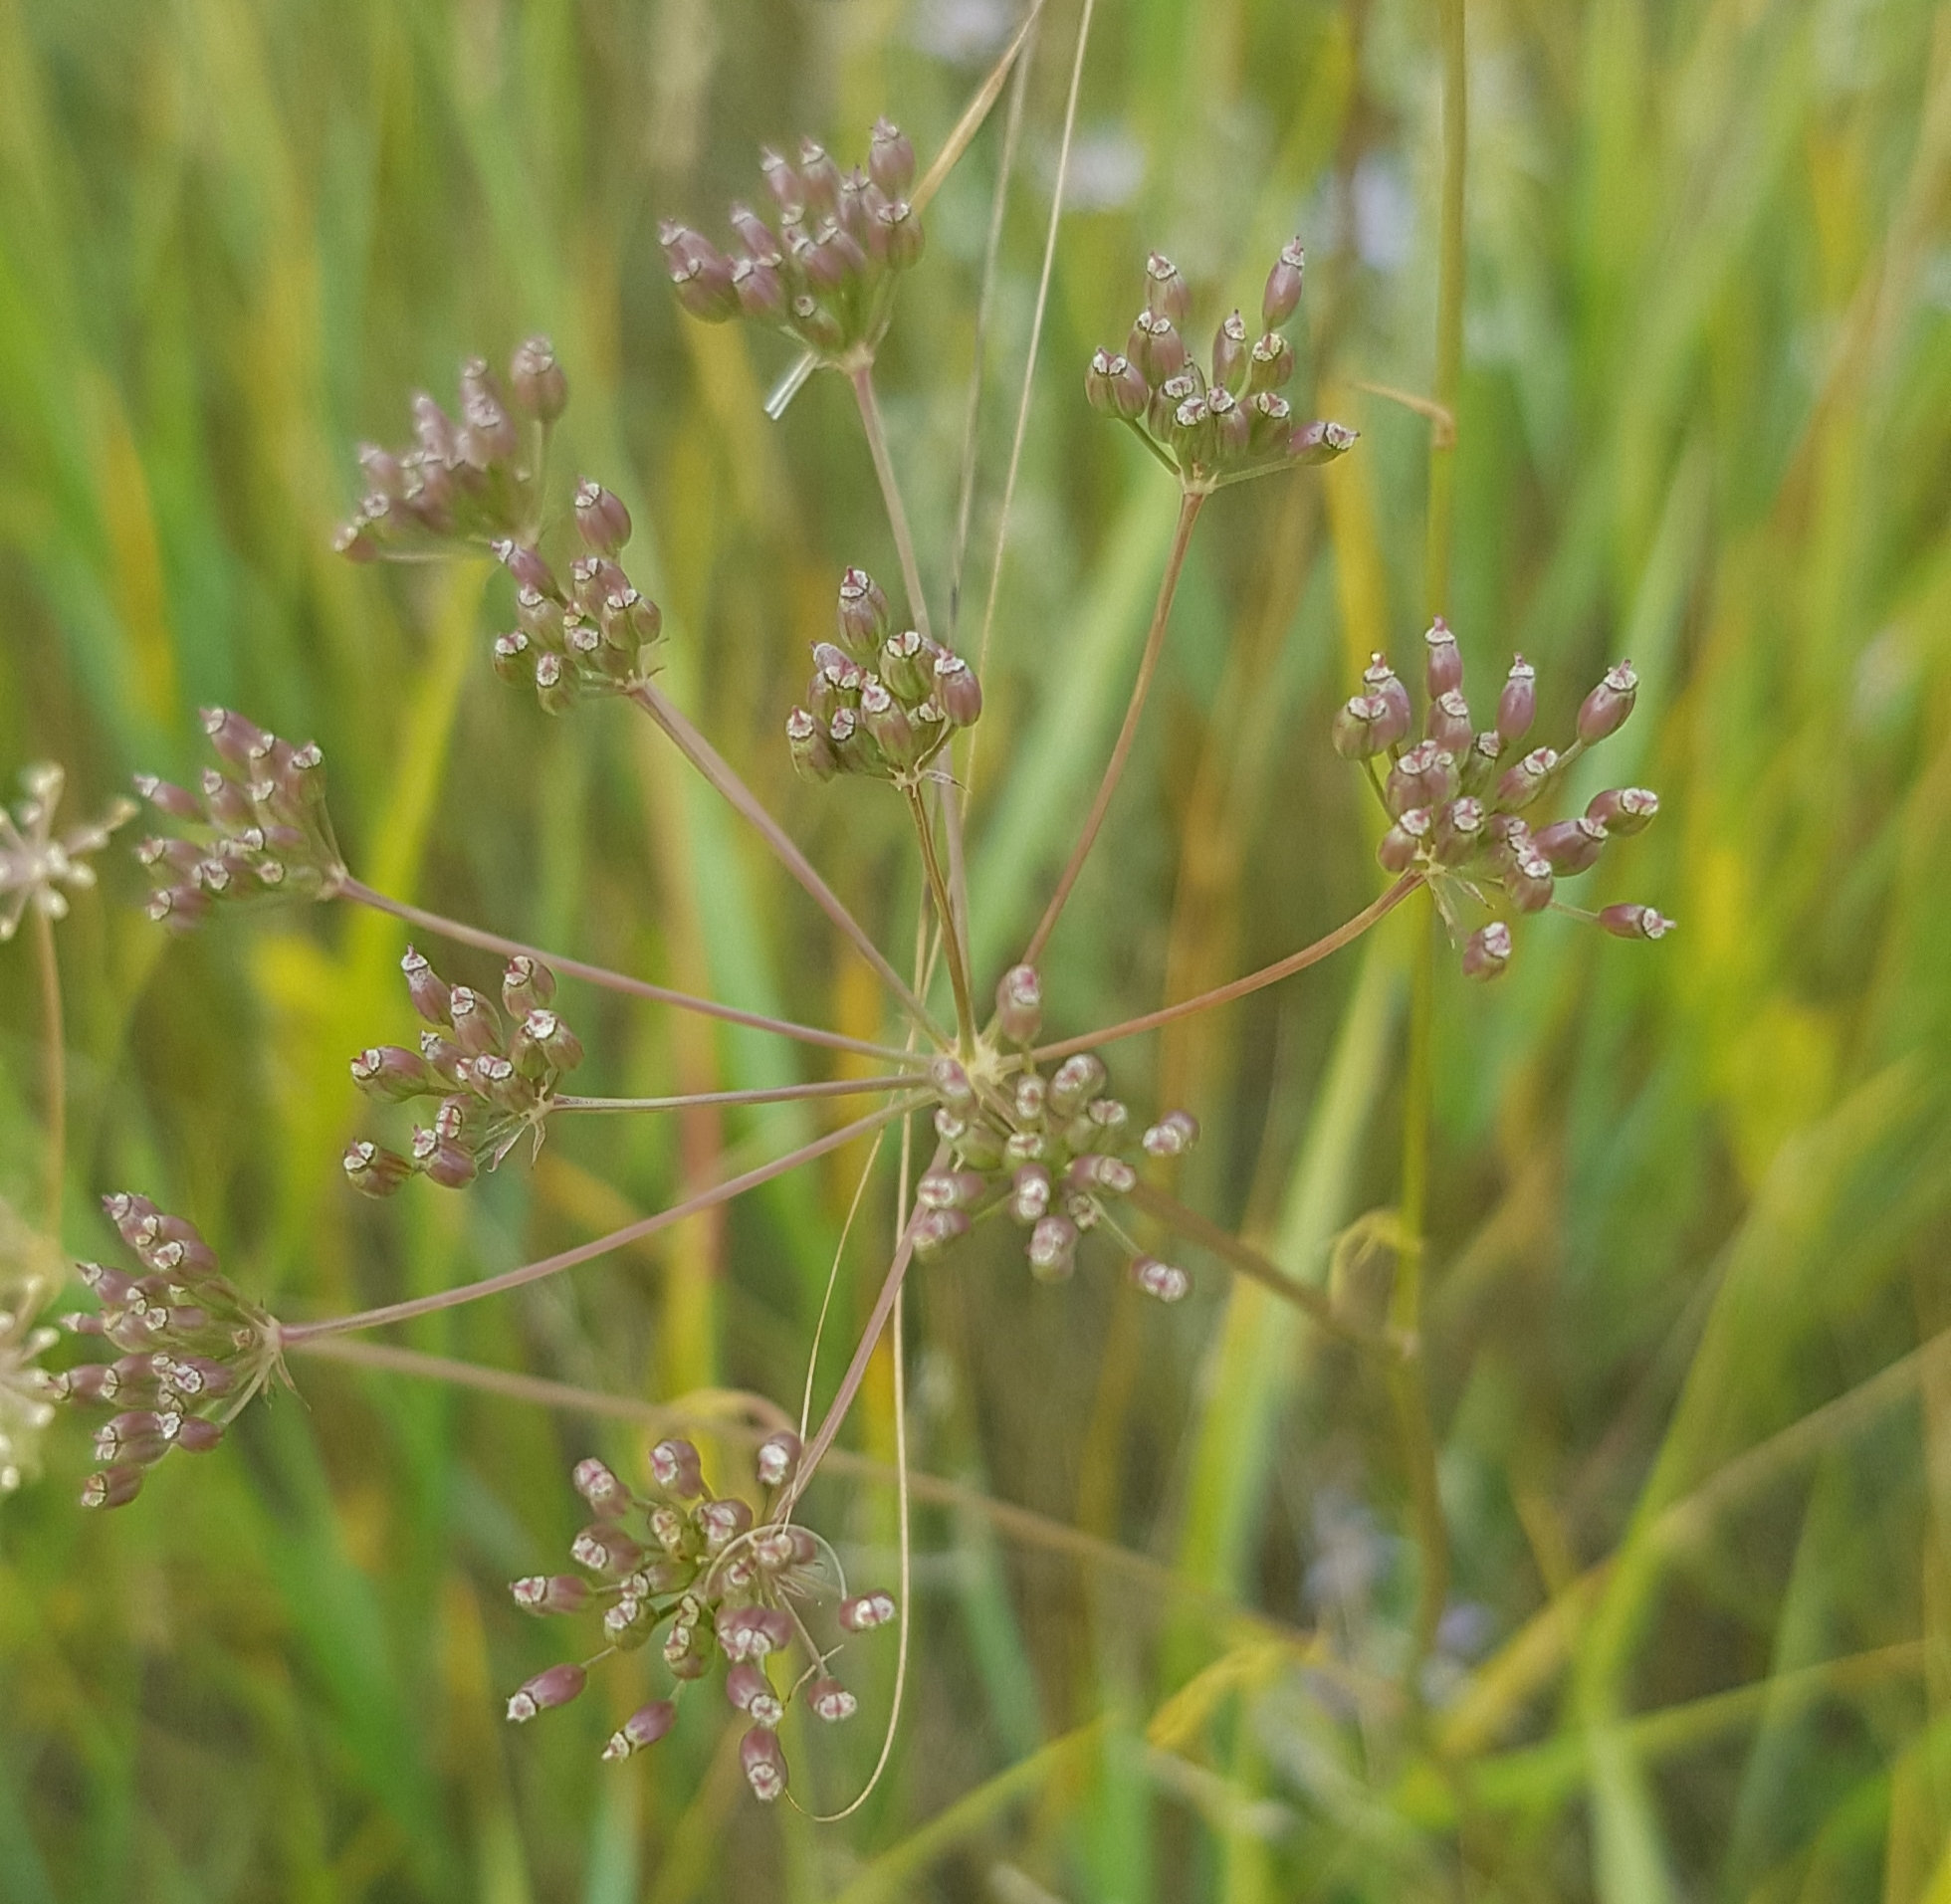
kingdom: Plantae
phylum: Tracheophyta
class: Magnoliopsida
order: Apiales
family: Apiaceae
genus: Carum
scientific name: Carum buriaticum
